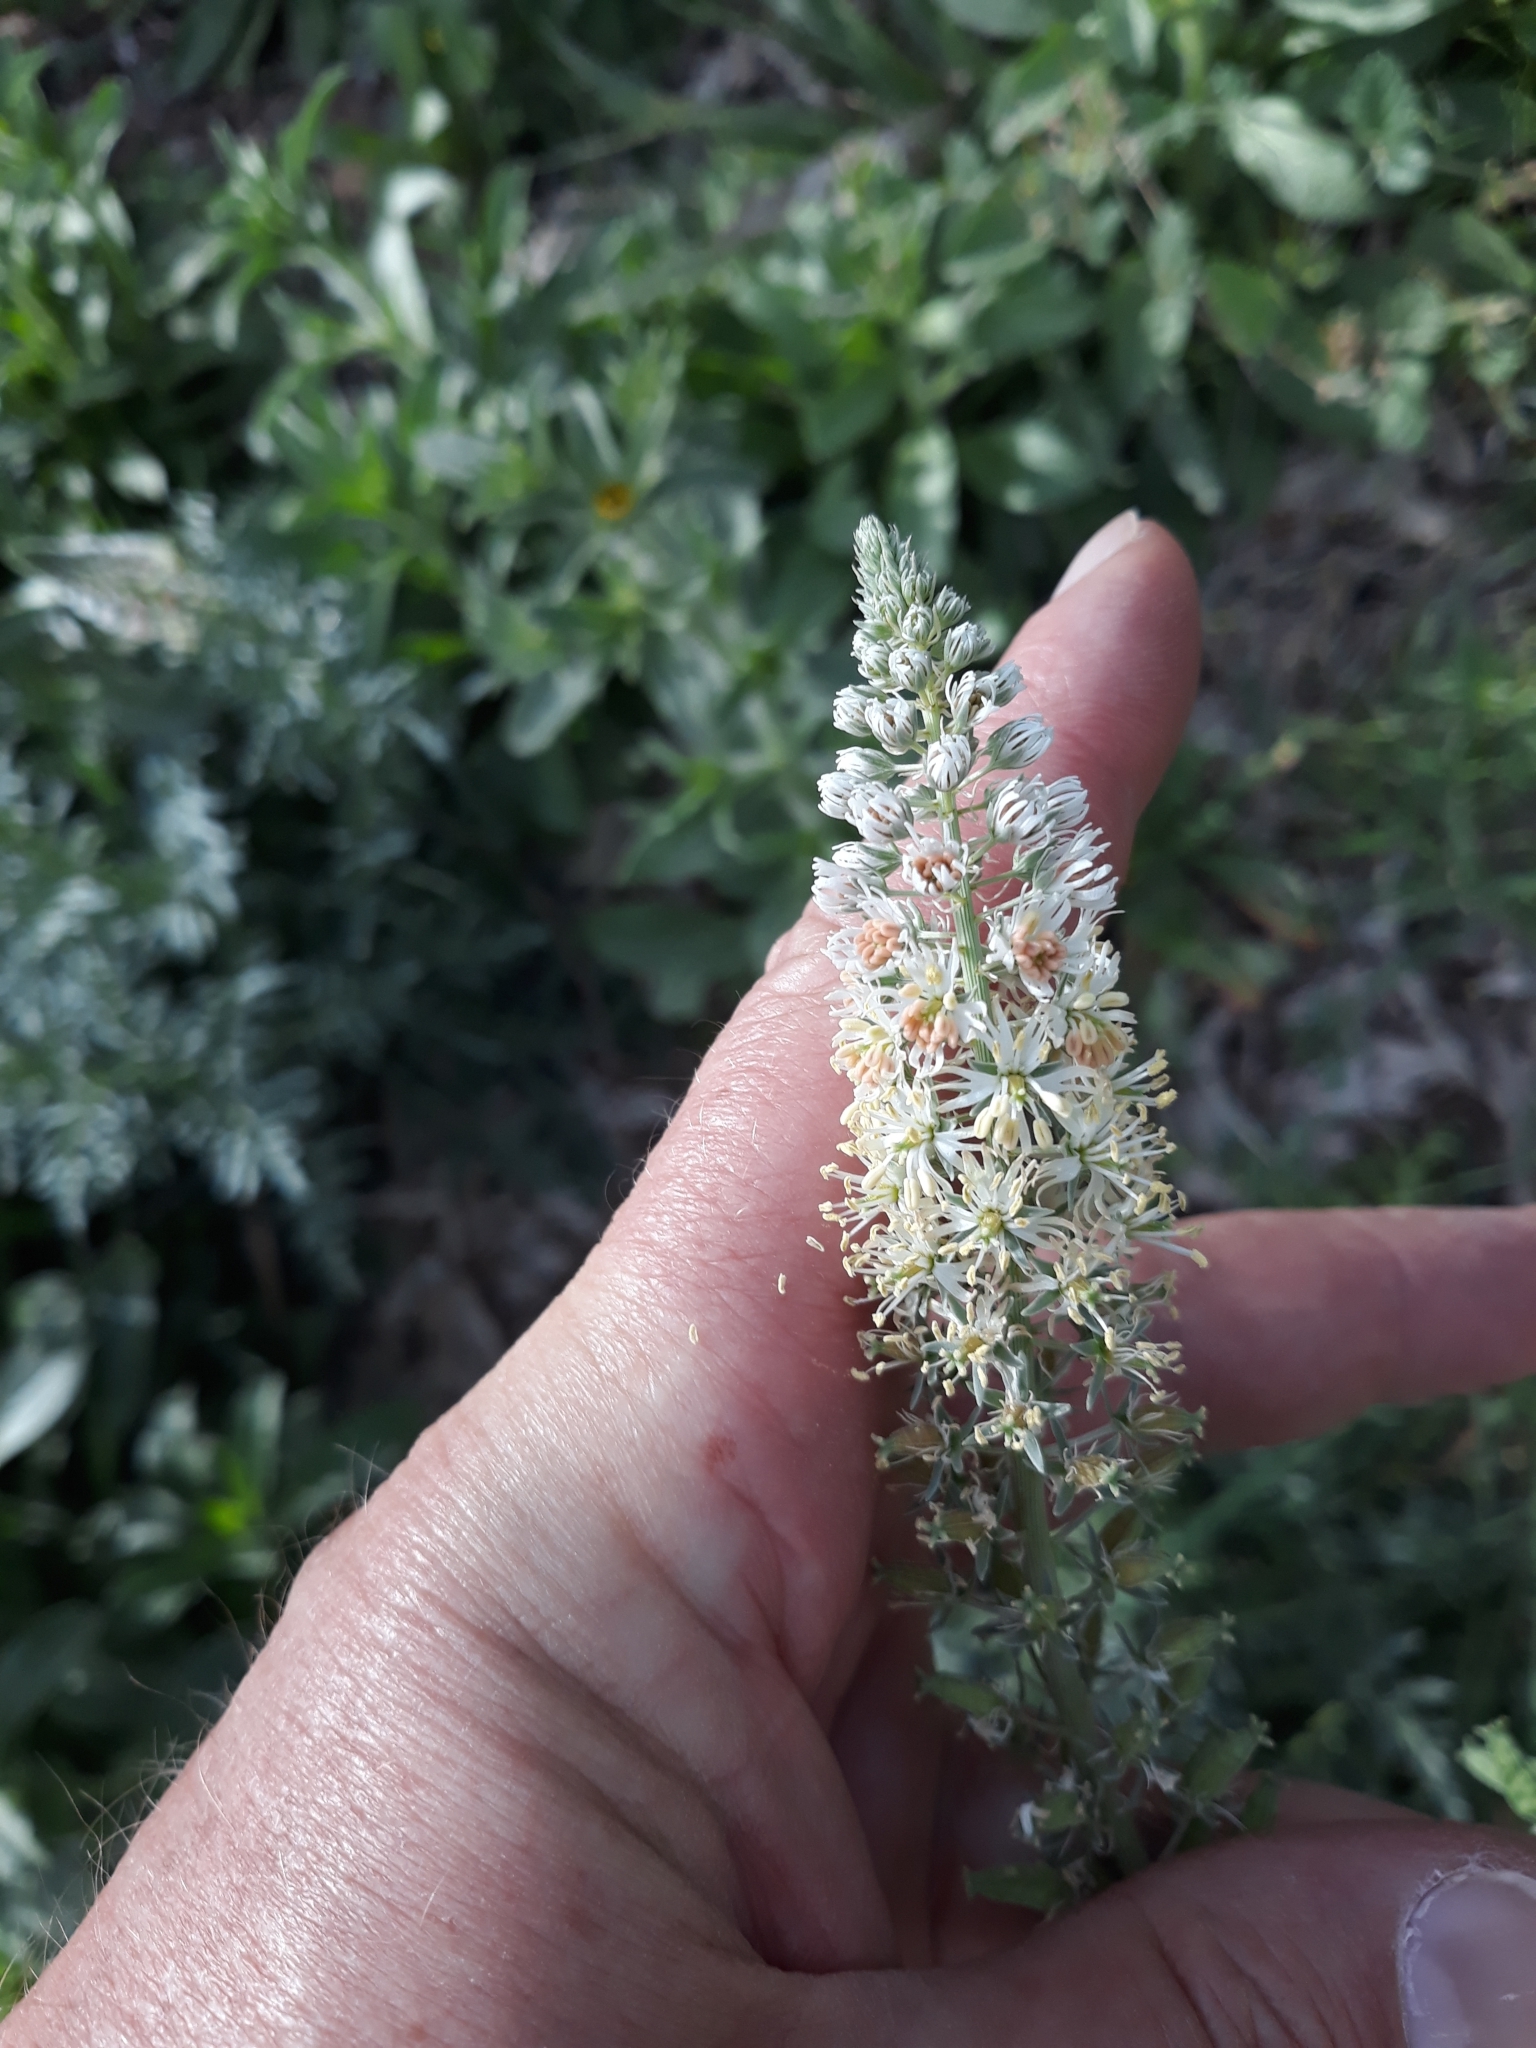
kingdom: Plantae
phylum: Tracheophyta
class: Magnoliopsida
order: Brassicales
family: Resedaceae
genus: Reseda
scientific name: Reseda alba
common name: White mignonette
